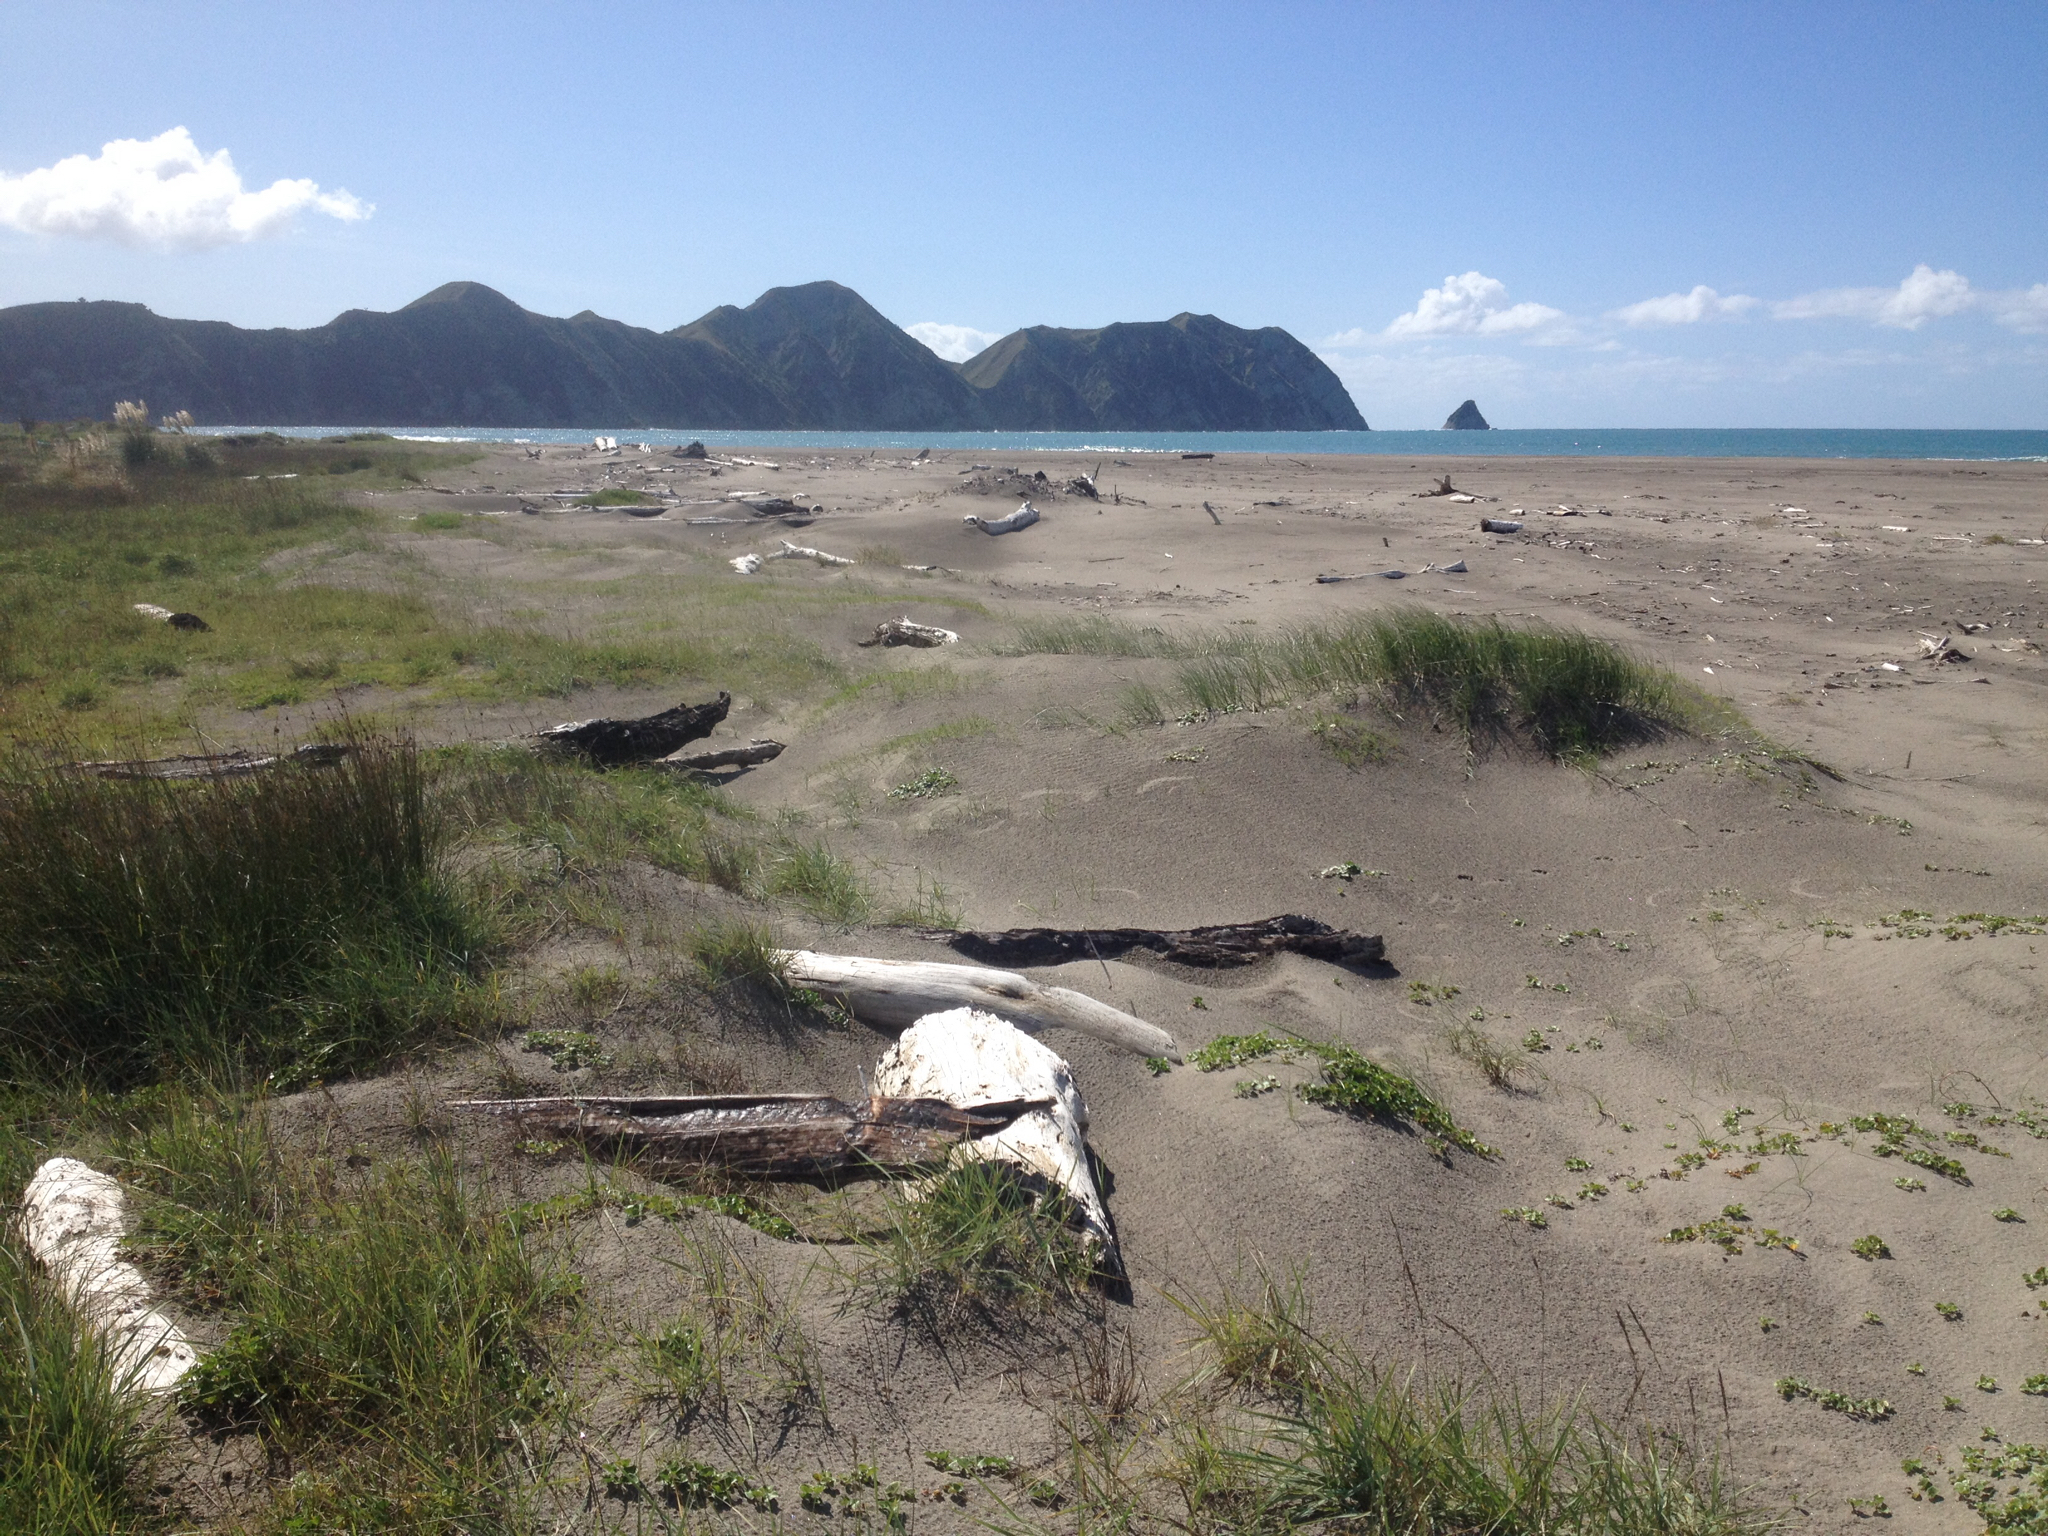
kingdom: Plantae
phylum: Tracheophyta
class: Liliopsida
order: Poales
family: Cyperaceae
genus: Ficinia
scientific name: Ficinia nodosa
